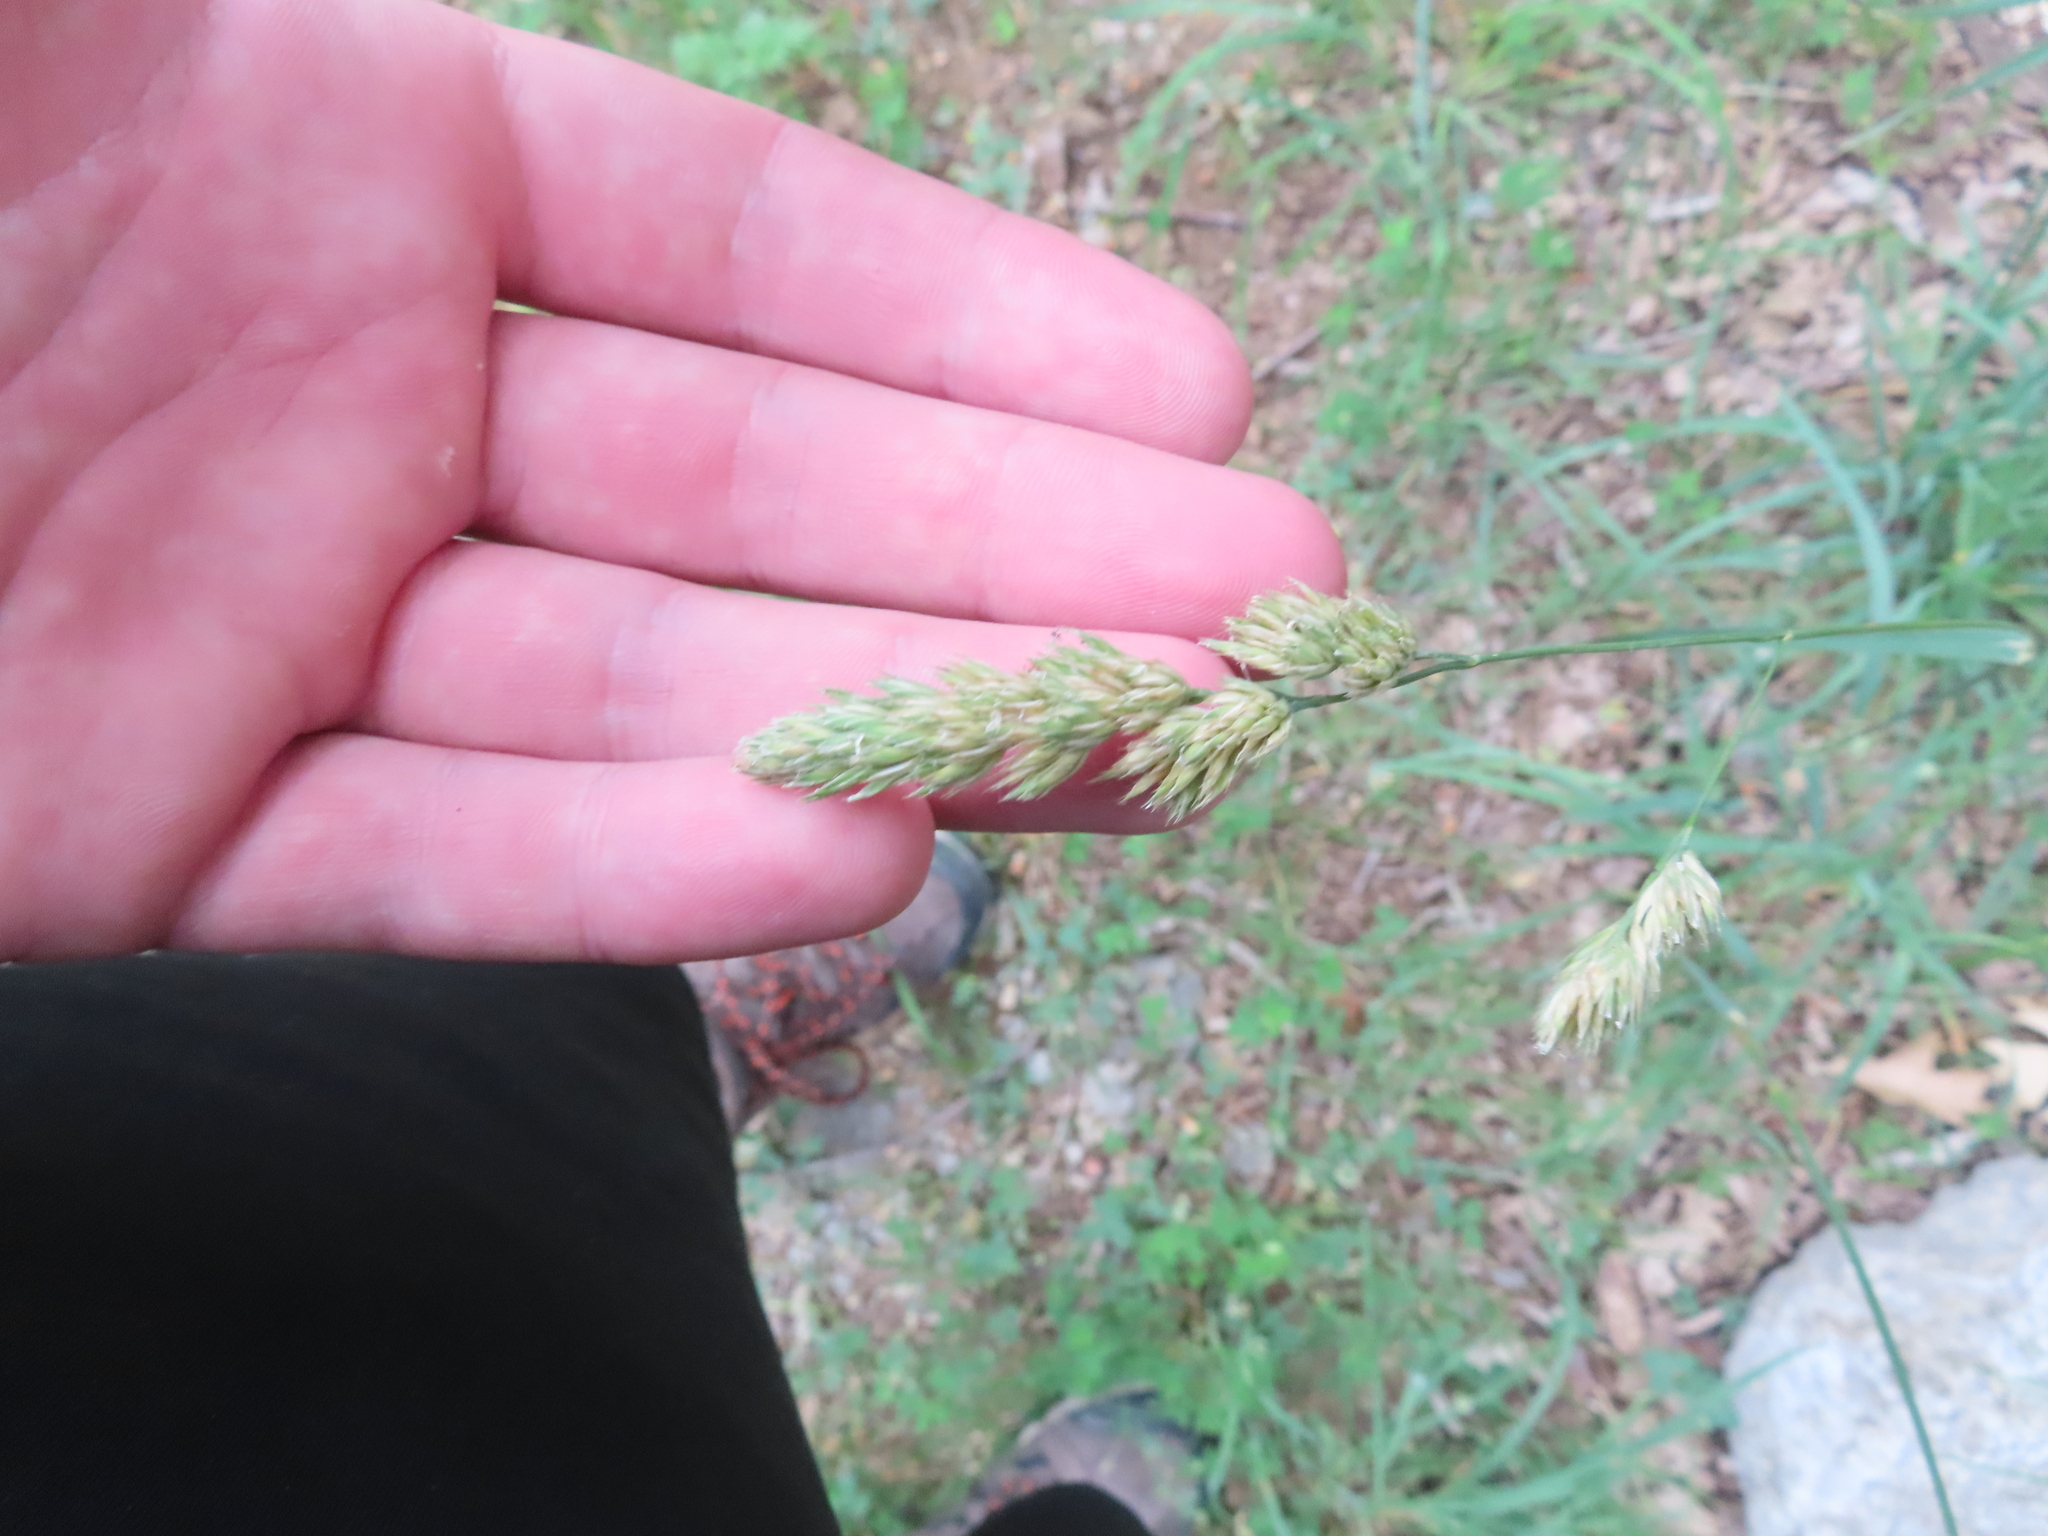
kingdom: Plantae
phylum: Tracheophyta
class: Liliopsida
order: Poales
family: Poaceae
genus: Dactylis
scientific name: Dactylis glomerata
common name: Orchardgrass
